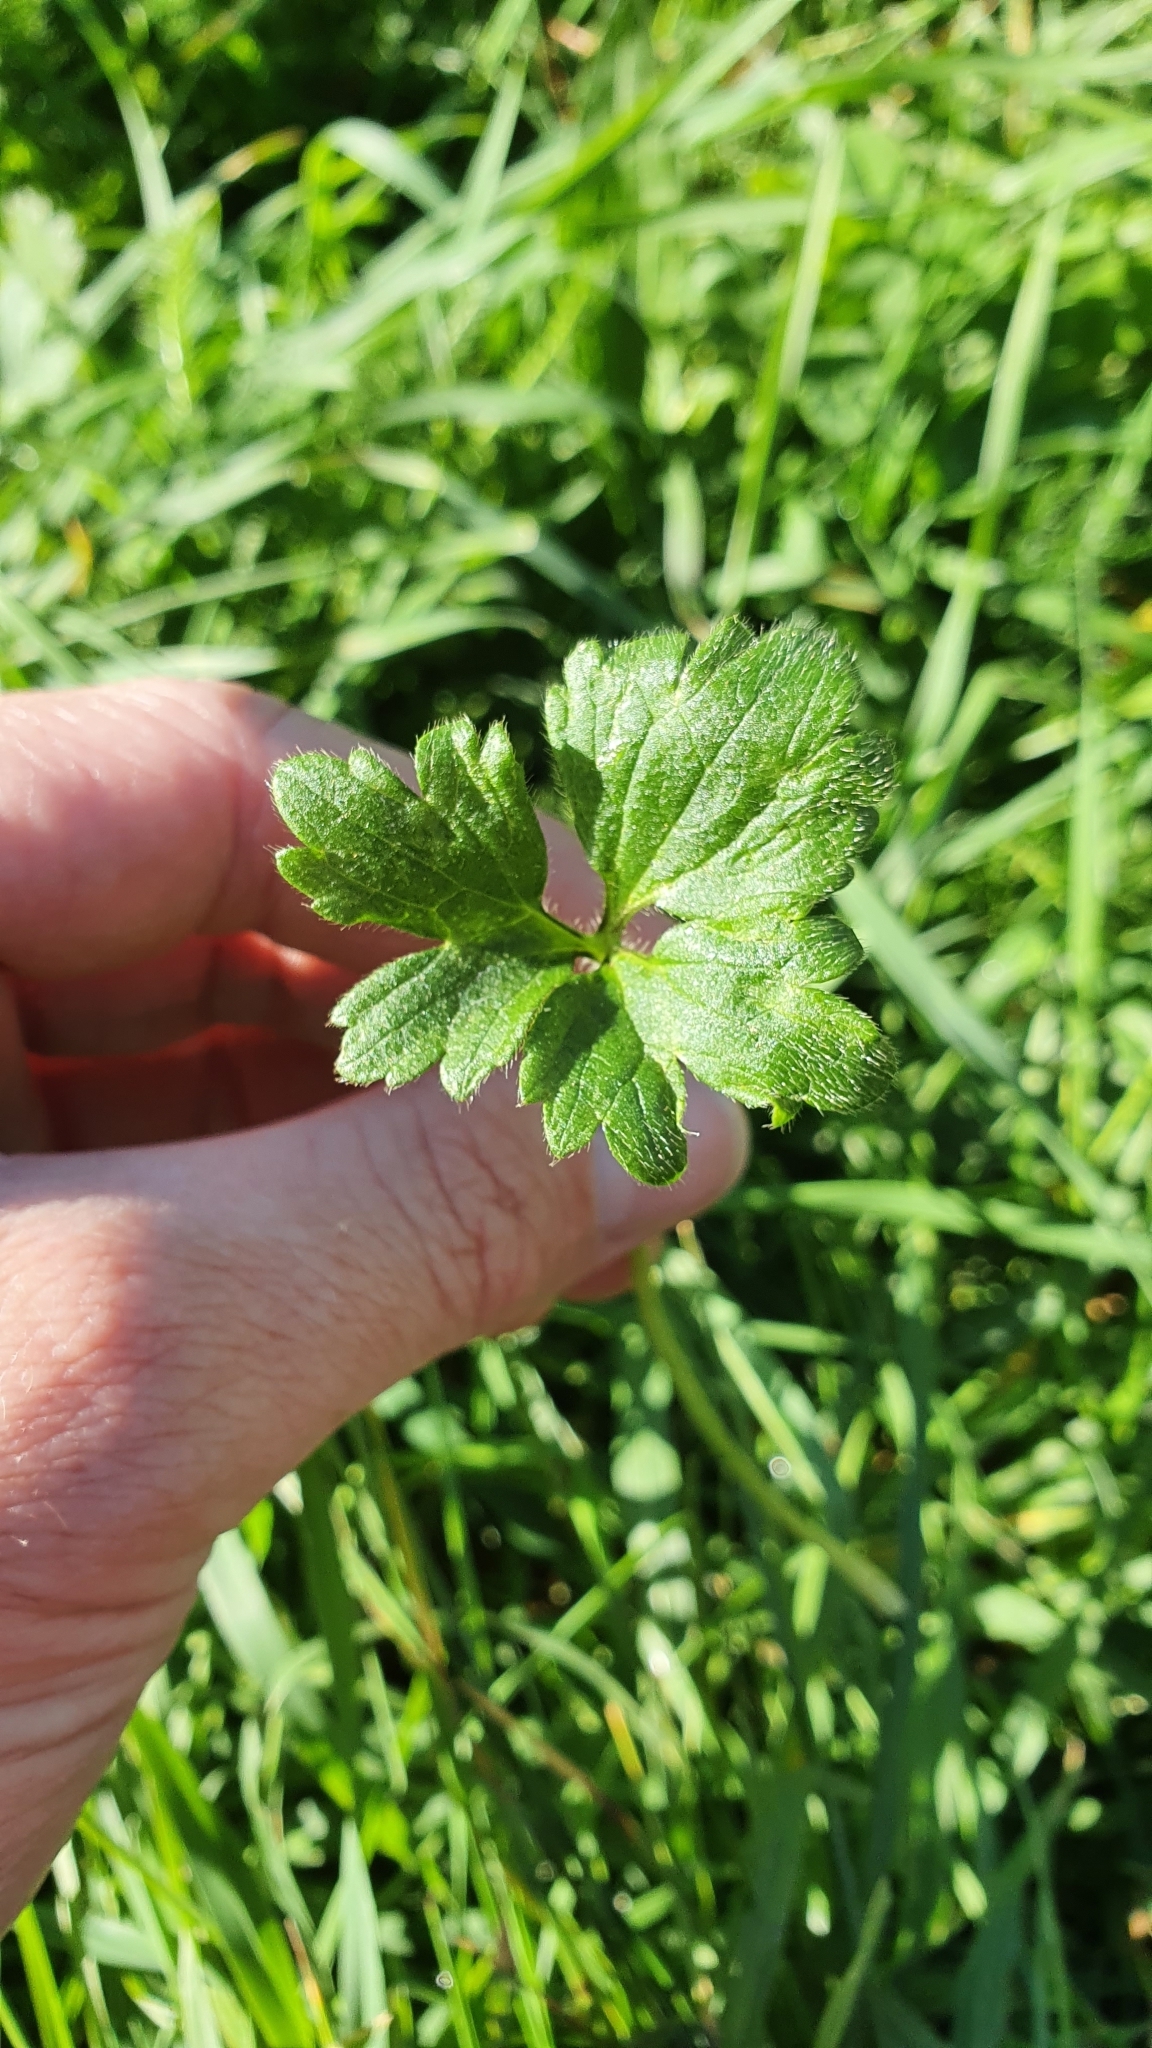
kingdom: Plantae
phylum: Tracheophyta
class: Magnoliopsida
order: Ranunculales
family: Ranunculaceae
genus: Ranunculus
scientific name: Ranunculus repens
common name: Creeping buttercup
